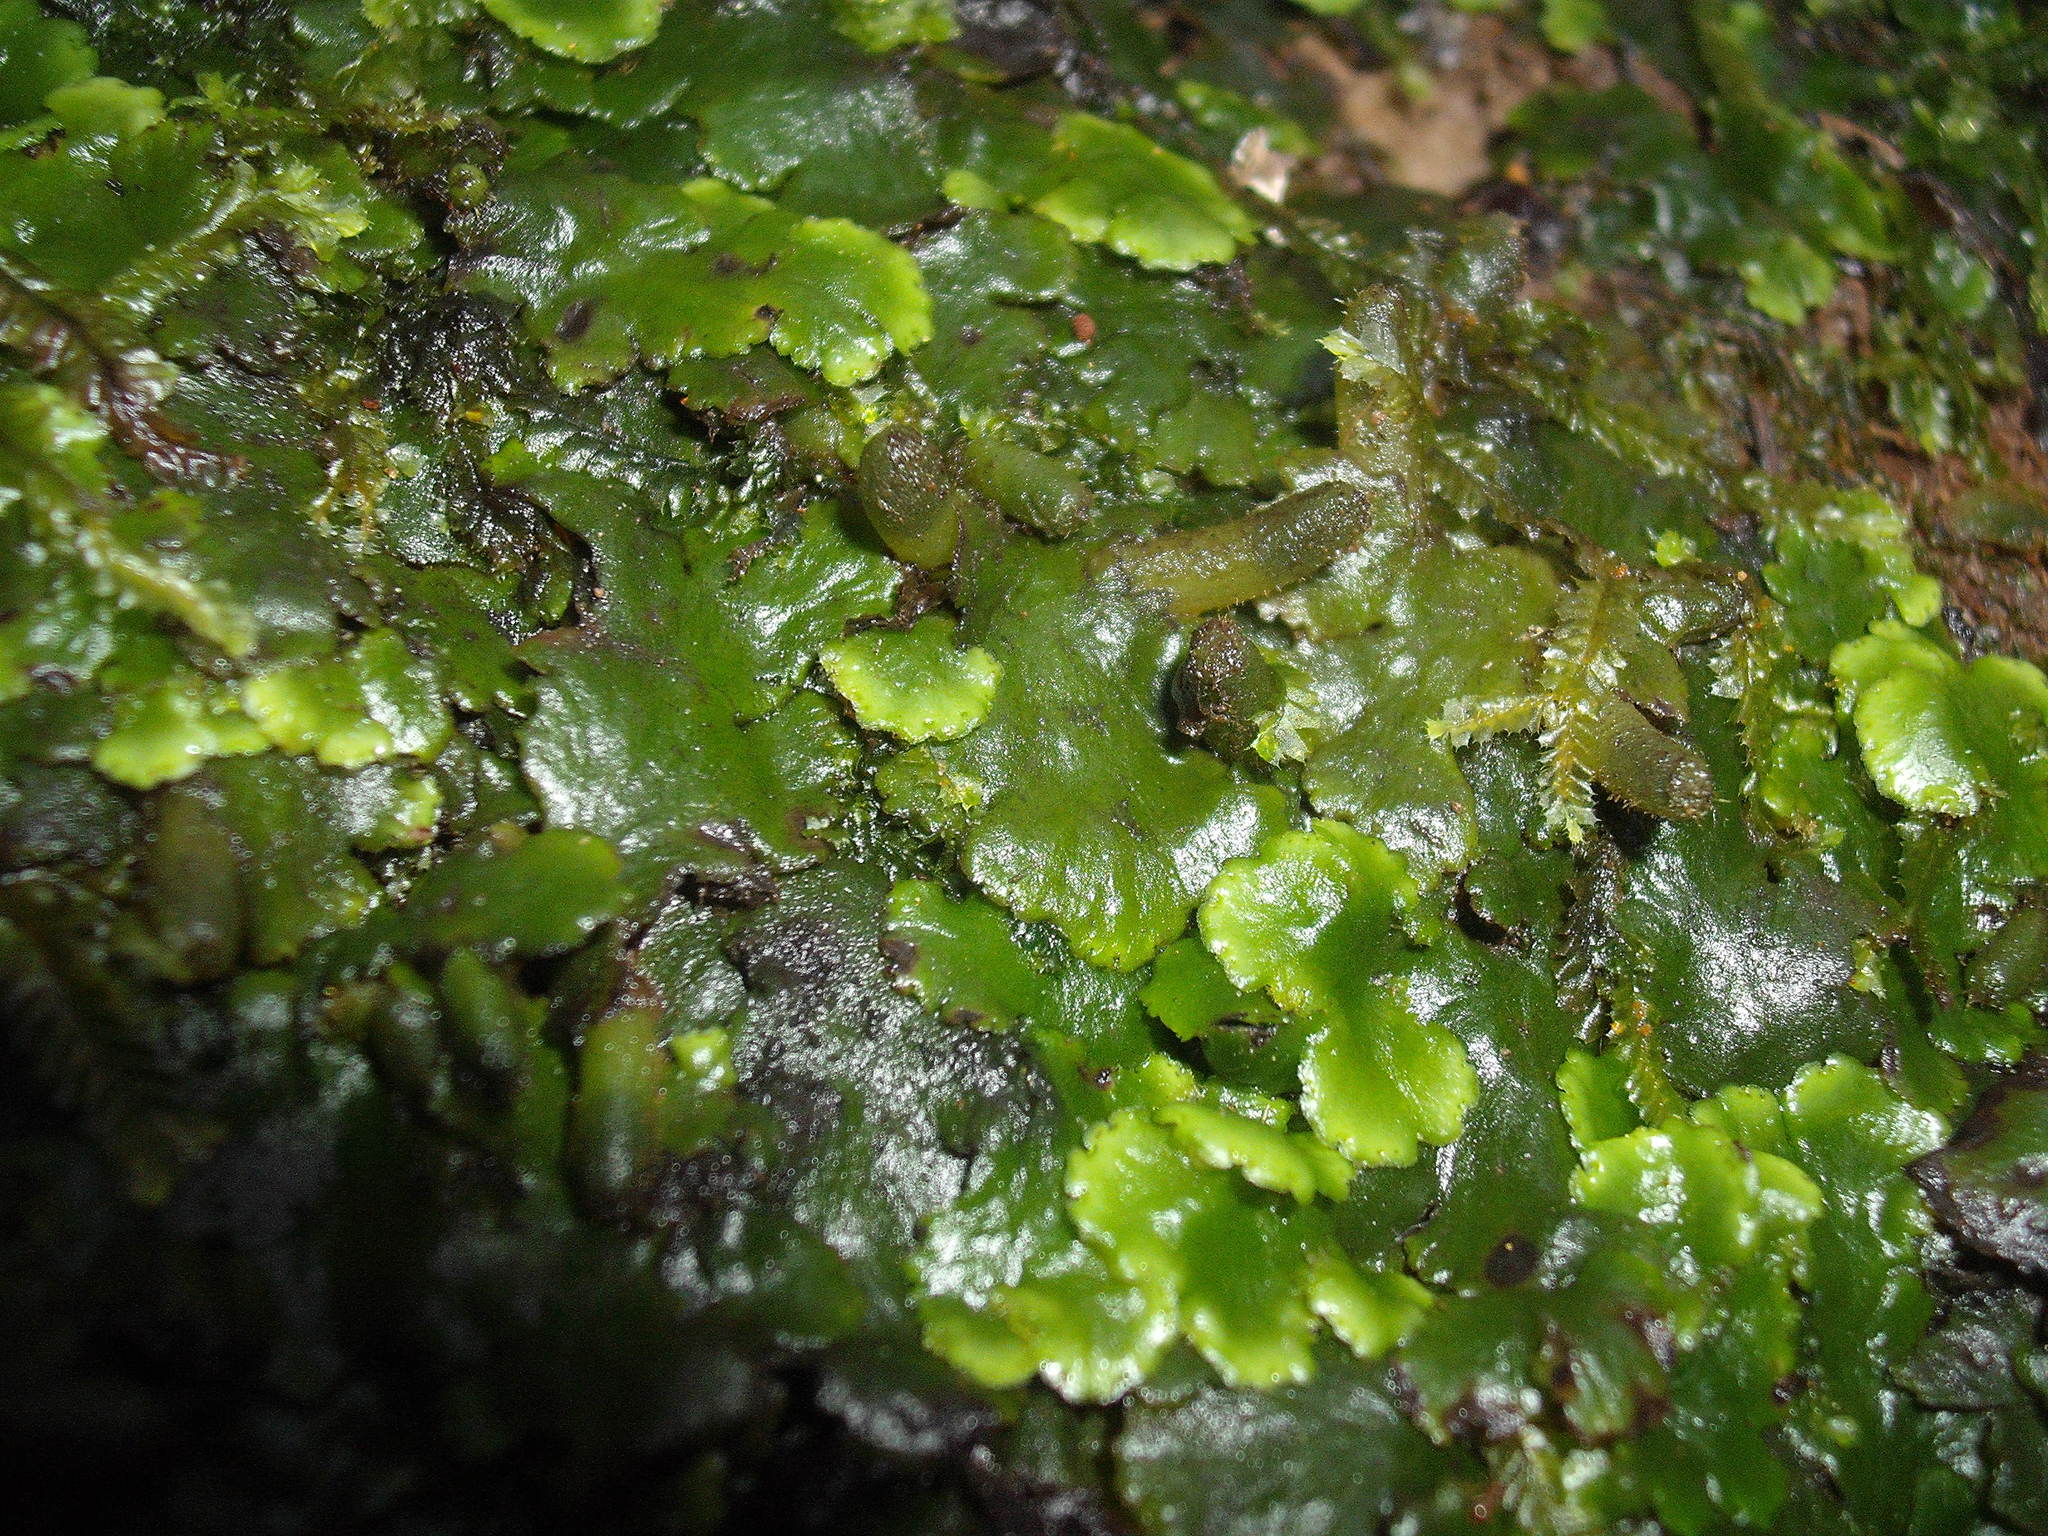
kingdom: Plantae
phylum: Marchantiophyta
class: Jungermanniopsida
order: Metzgeriales
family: Aneuraceae
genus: Lobatiriccardia
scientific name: Lobatiriccardia alterniloba
